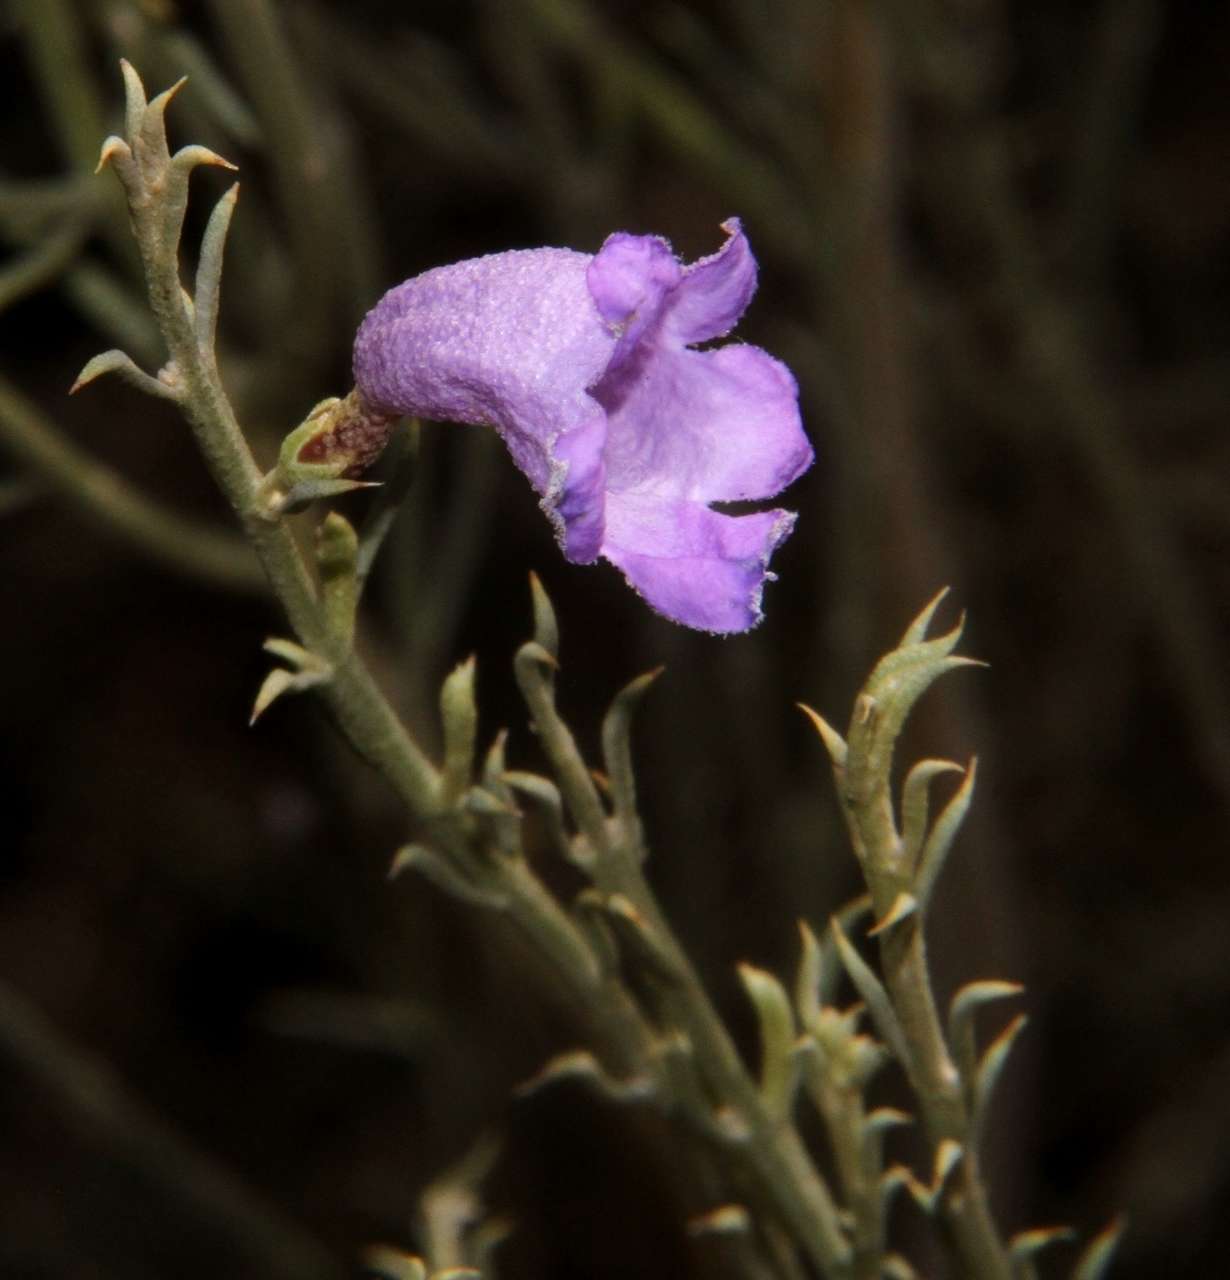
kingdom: Plantae
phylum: Tracheophyta
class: Magnoliopsida
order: Lamiales
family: Scrophulariaceae
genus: Eremophila
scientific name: Eremophila scoparia
